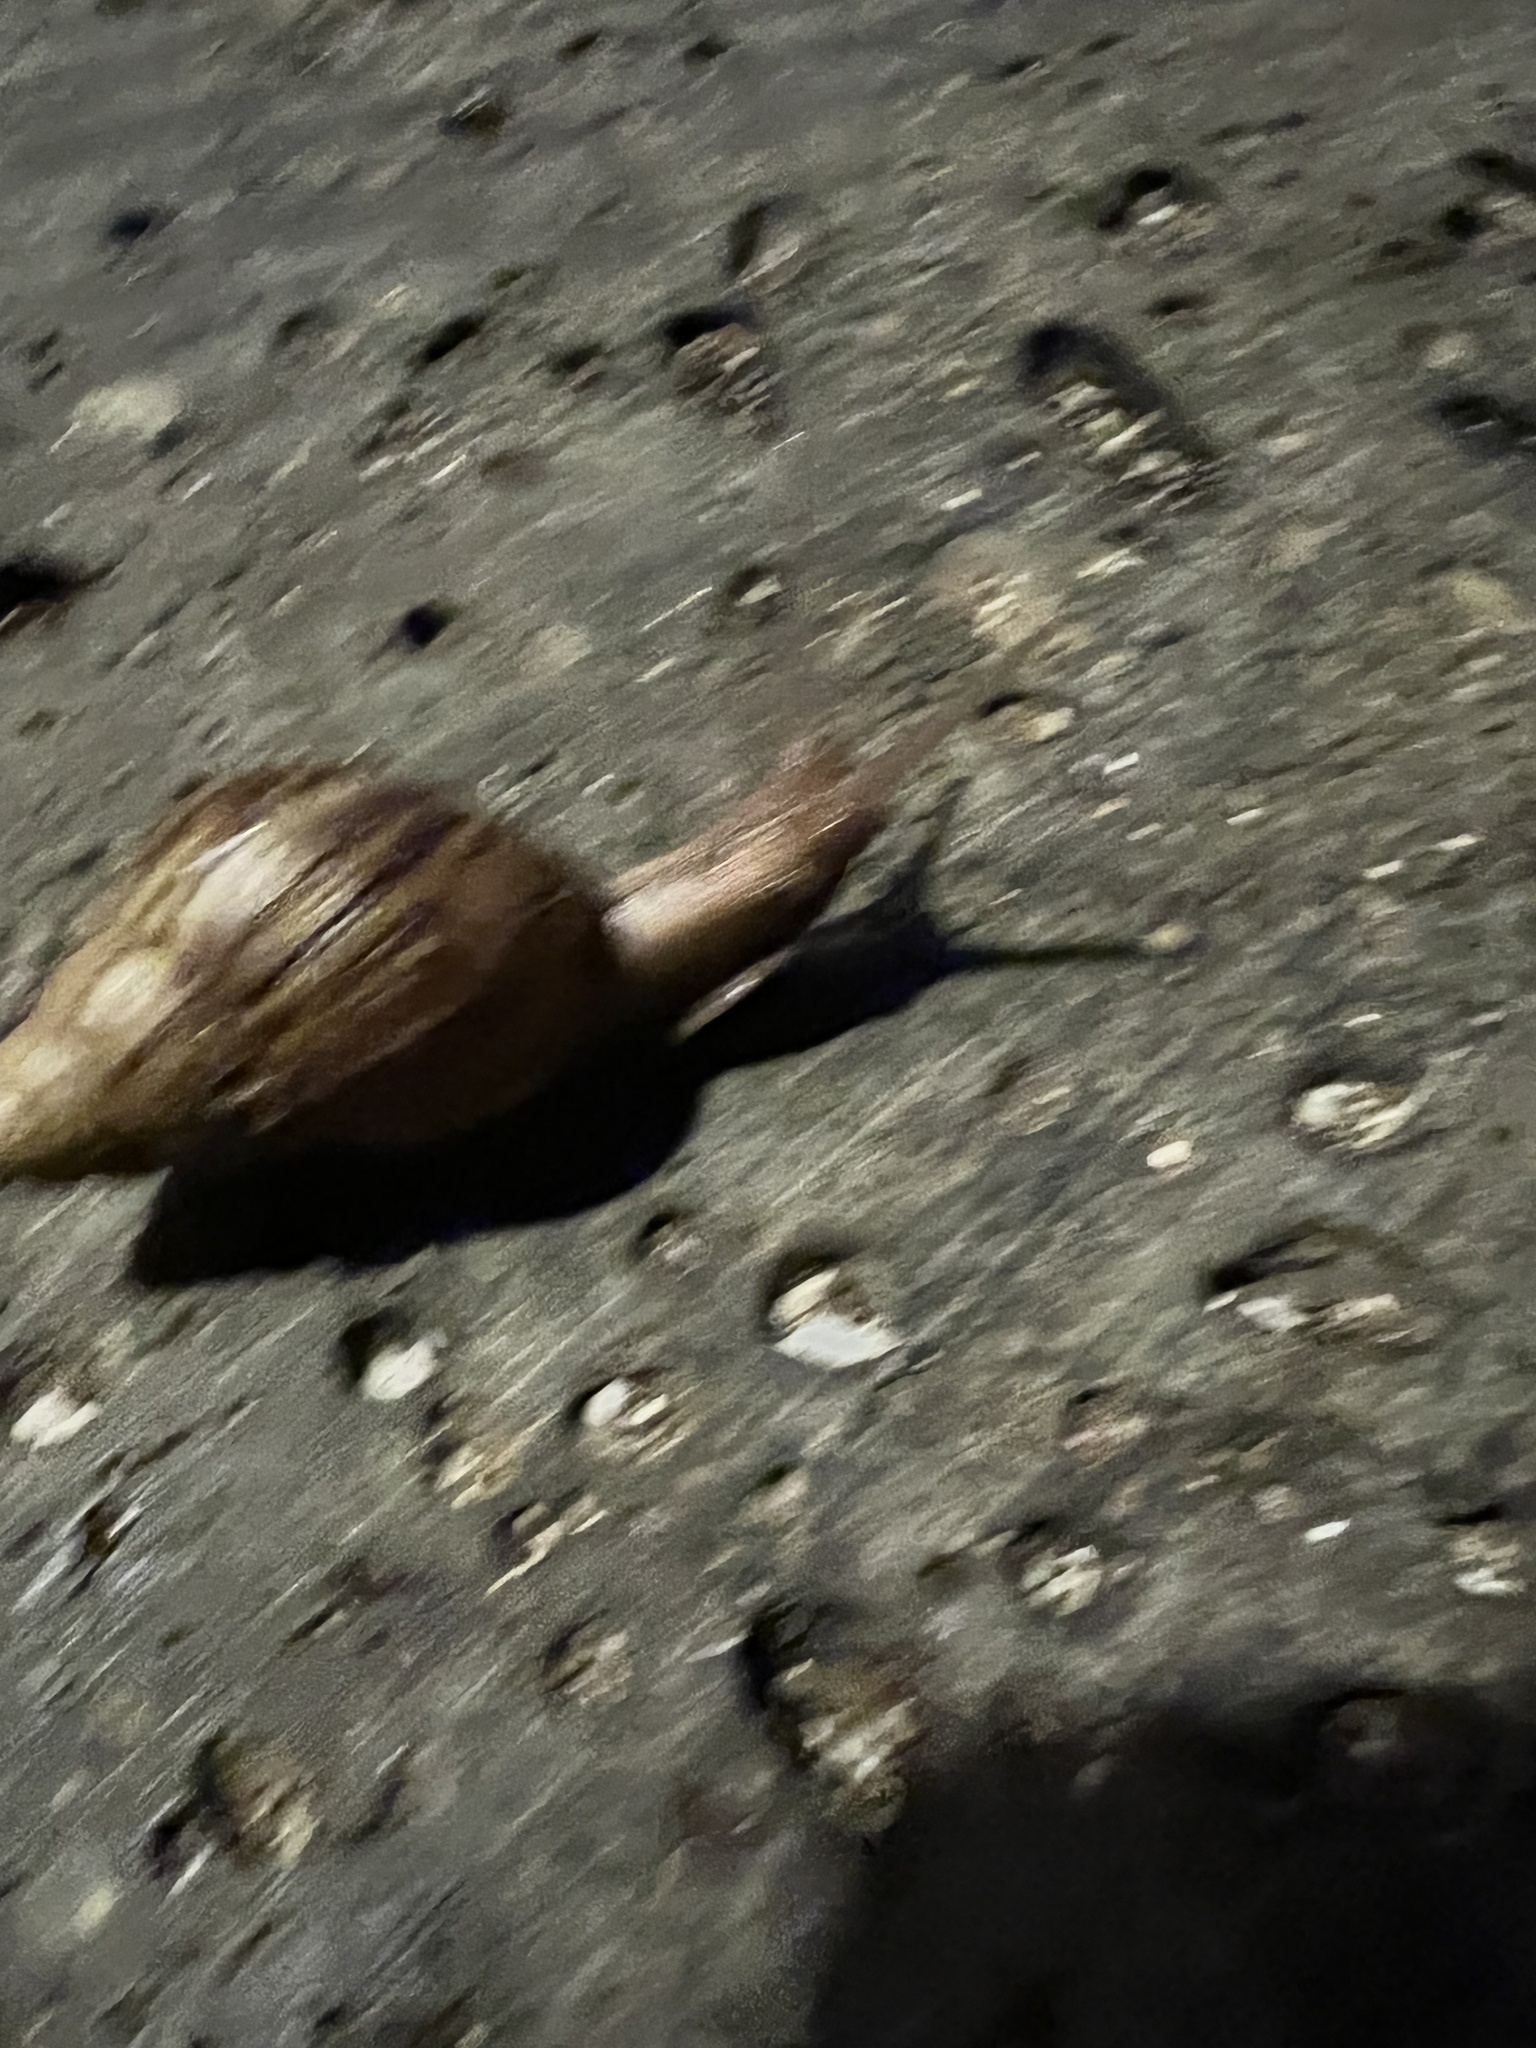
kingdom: Animalia
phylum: Mollusca
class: Gastropoda
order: Stylommatophora
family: Achatinidae
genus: Lissachatina
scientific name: Lissachatina fulica
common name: Giant african snail
